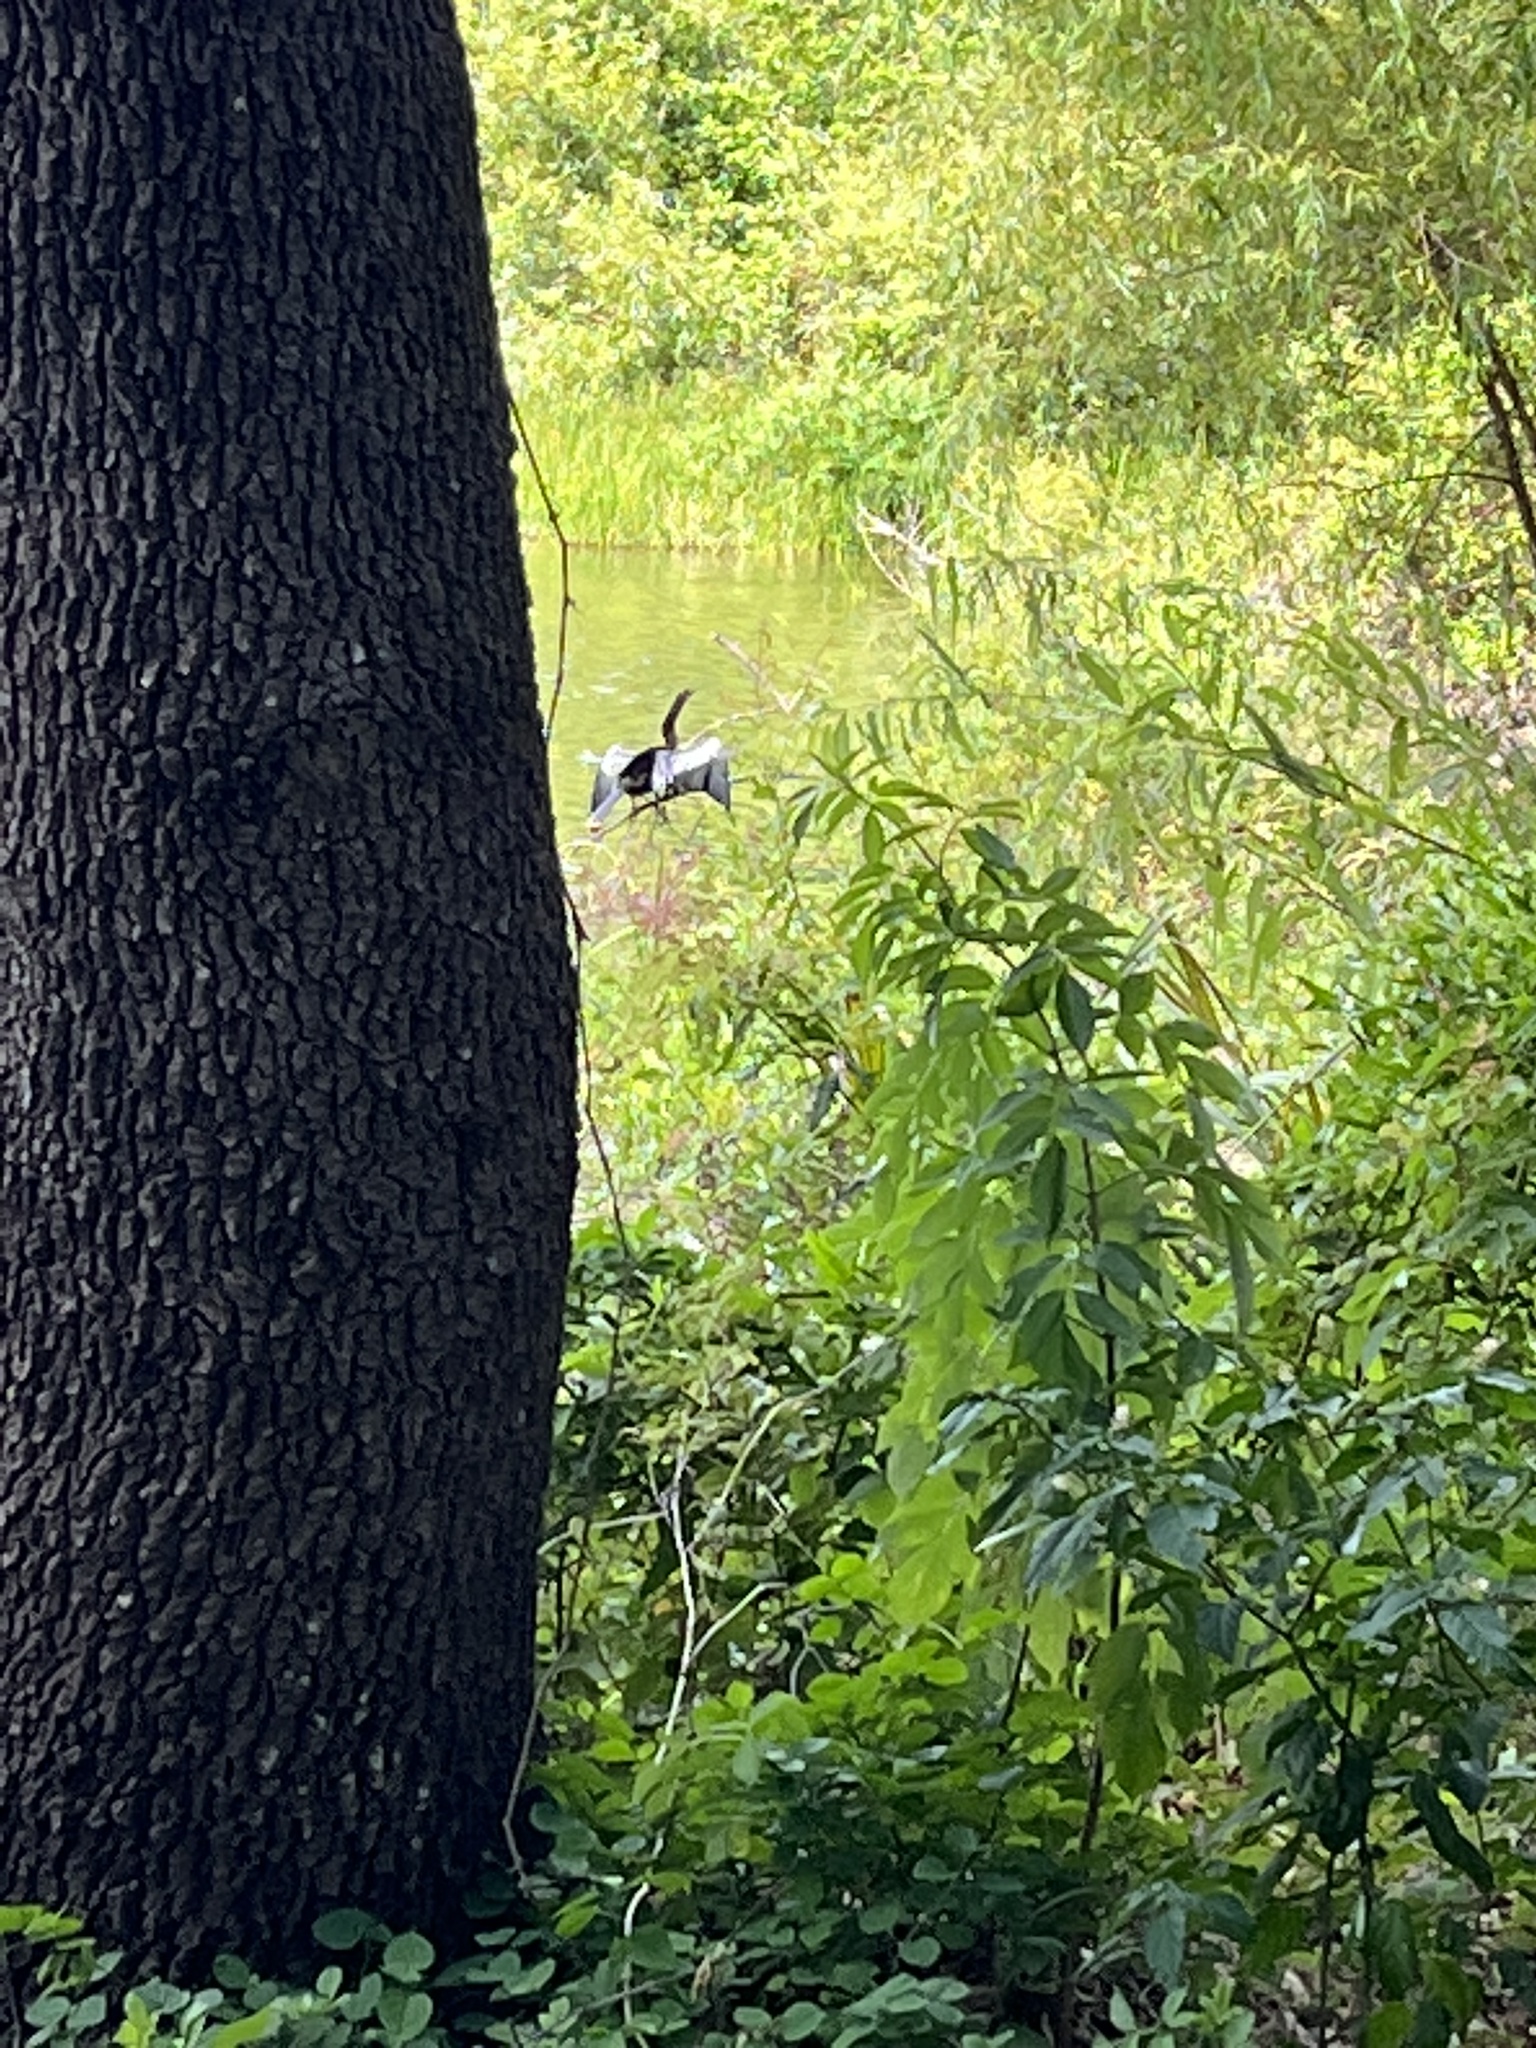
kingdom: Animalia
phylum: Chordata
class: Aves
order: Suliformes
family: Anhingidae
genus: Anhinga
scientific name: Anhinga anhinga
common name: Anhinga
